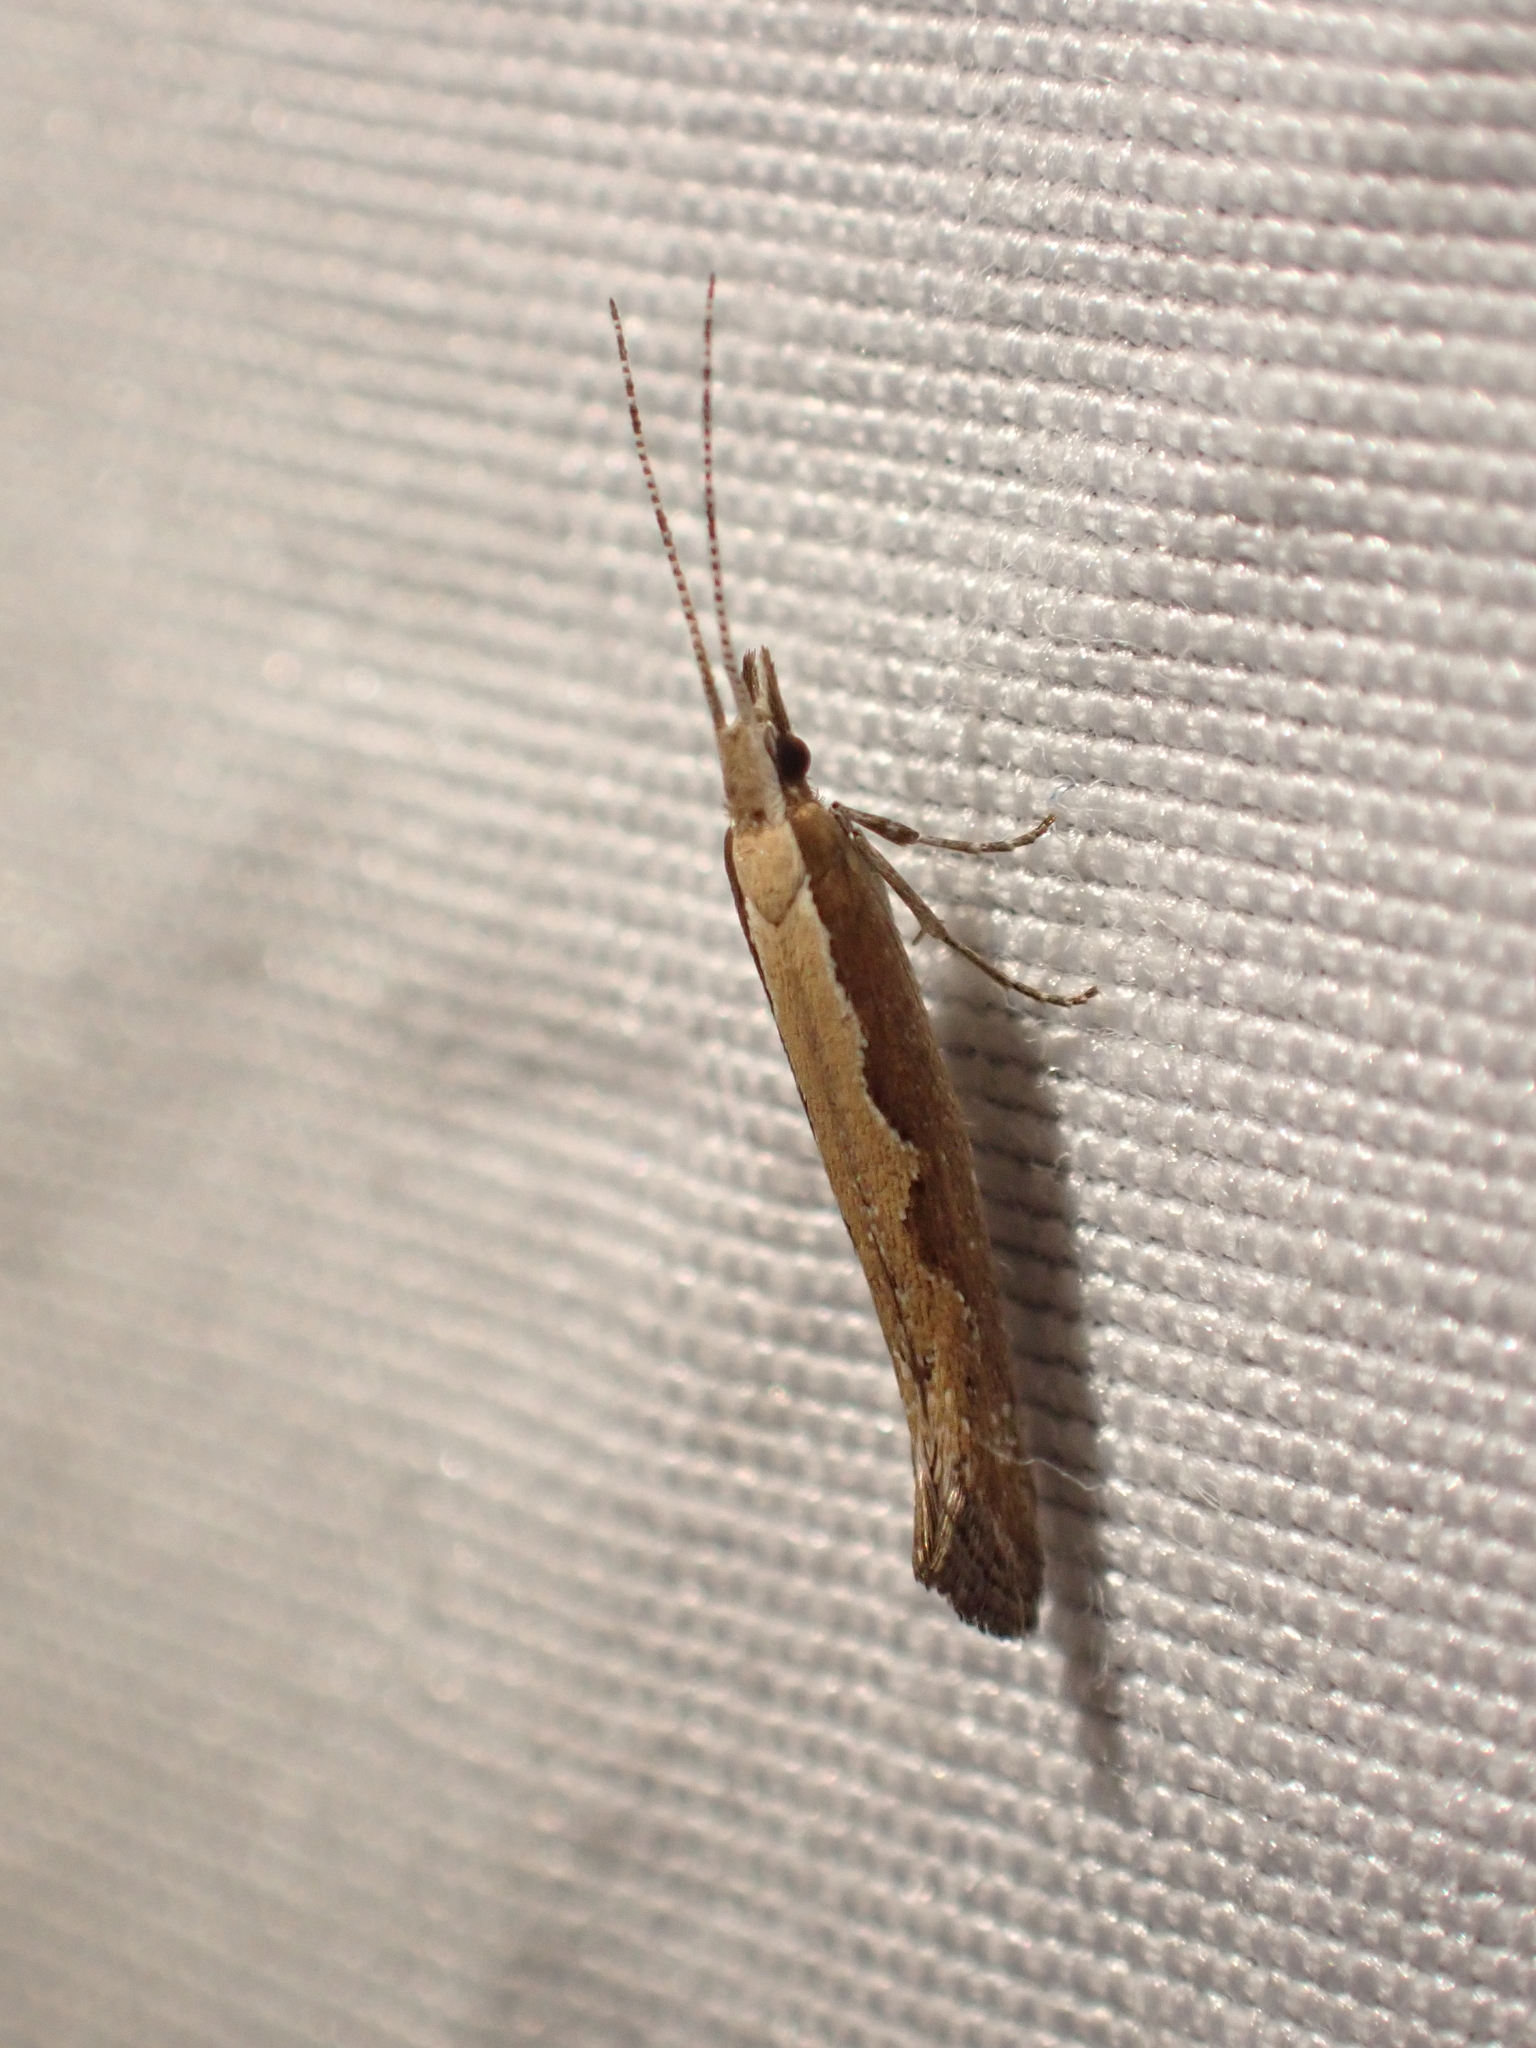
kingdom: Animalia
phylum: Arthropoda
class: Insecta
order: Lepidoptera
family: Plutellidae
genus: Plutella
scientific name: Plutella xylostella
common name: Diamond-back moth
